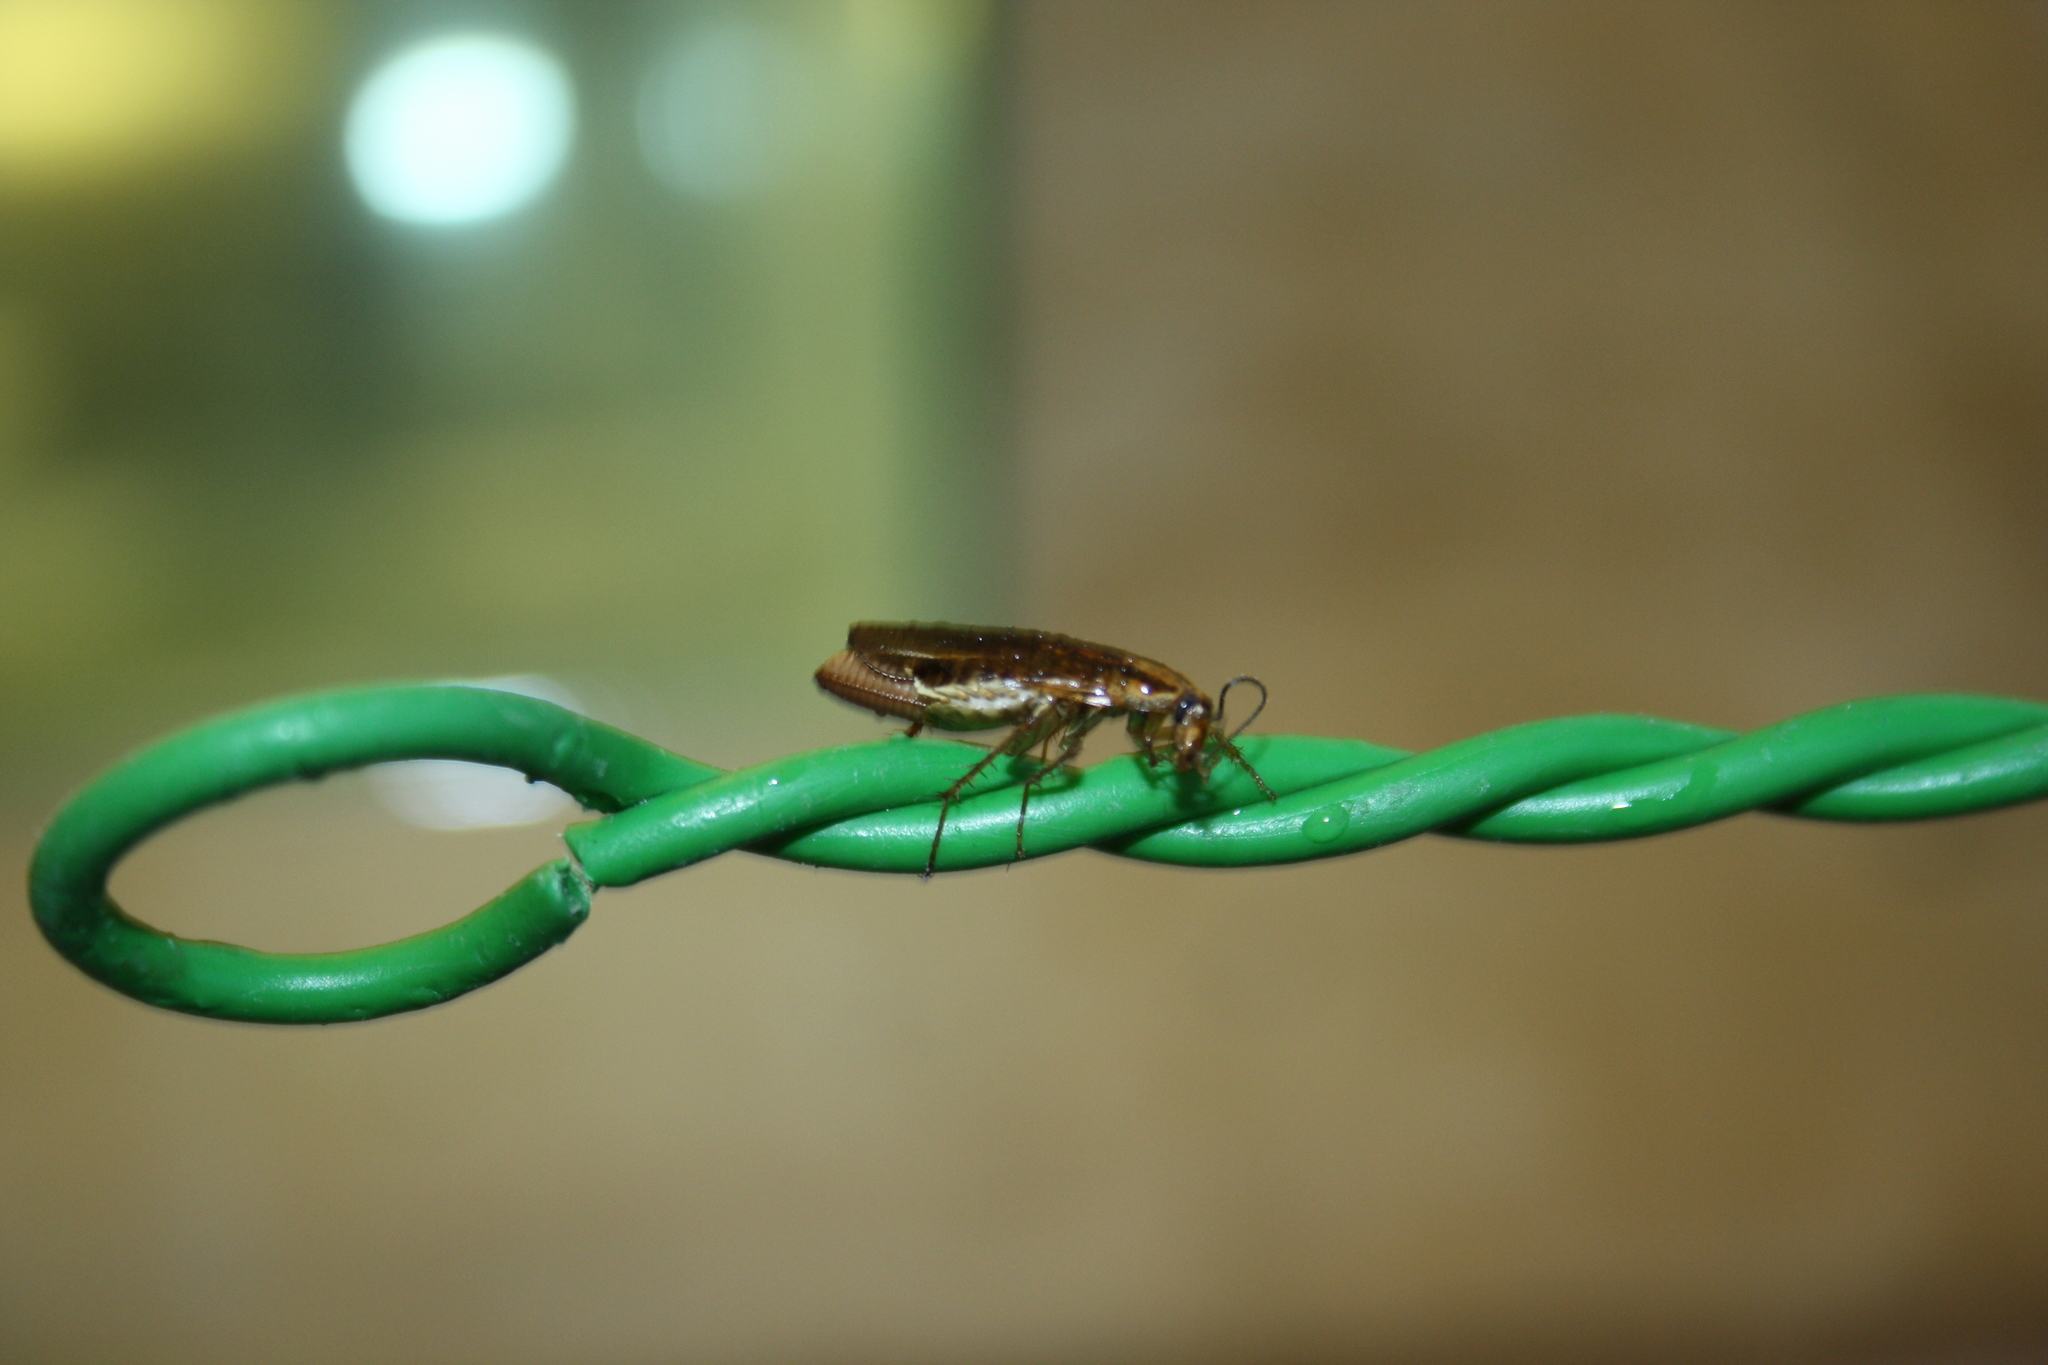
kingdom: Animalia
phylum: Arthropoda
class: Insecta
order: Blattodea
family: Ectobiidae
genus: Blattella
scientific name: Blattella germanica
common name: German cockroach
